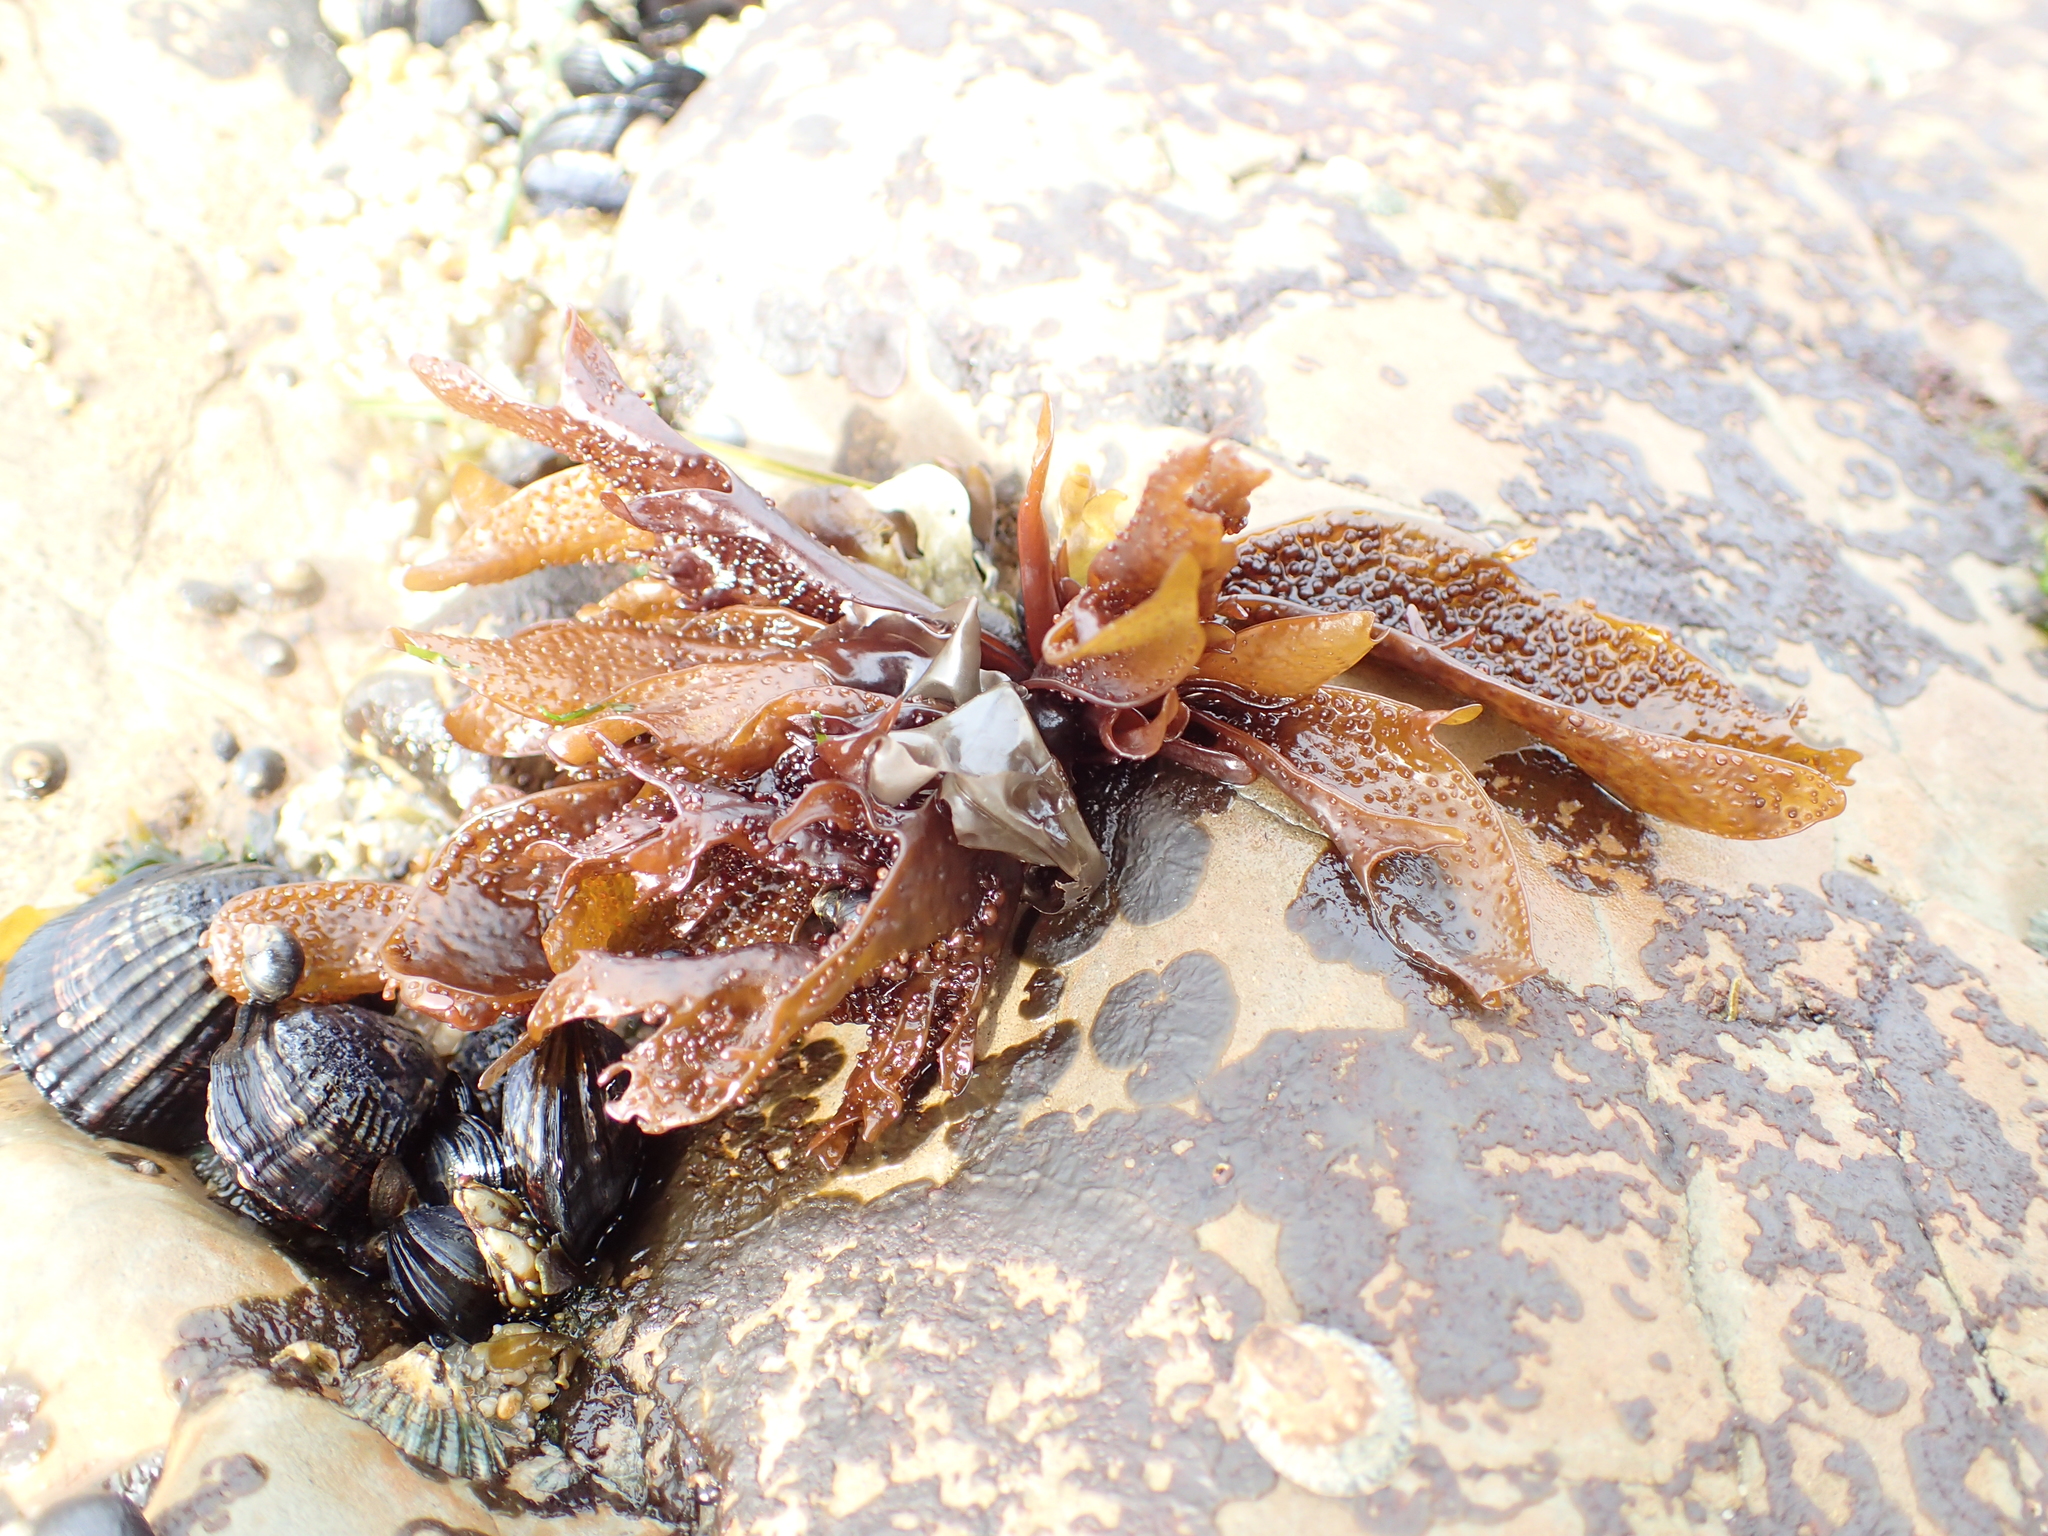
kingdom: Plantae
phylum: Rhodophyta
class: Florideophyceae
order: Gigartinales
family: Phyllophoraceae
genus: Mastocarpus
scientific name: Mastocarpus papillatus
